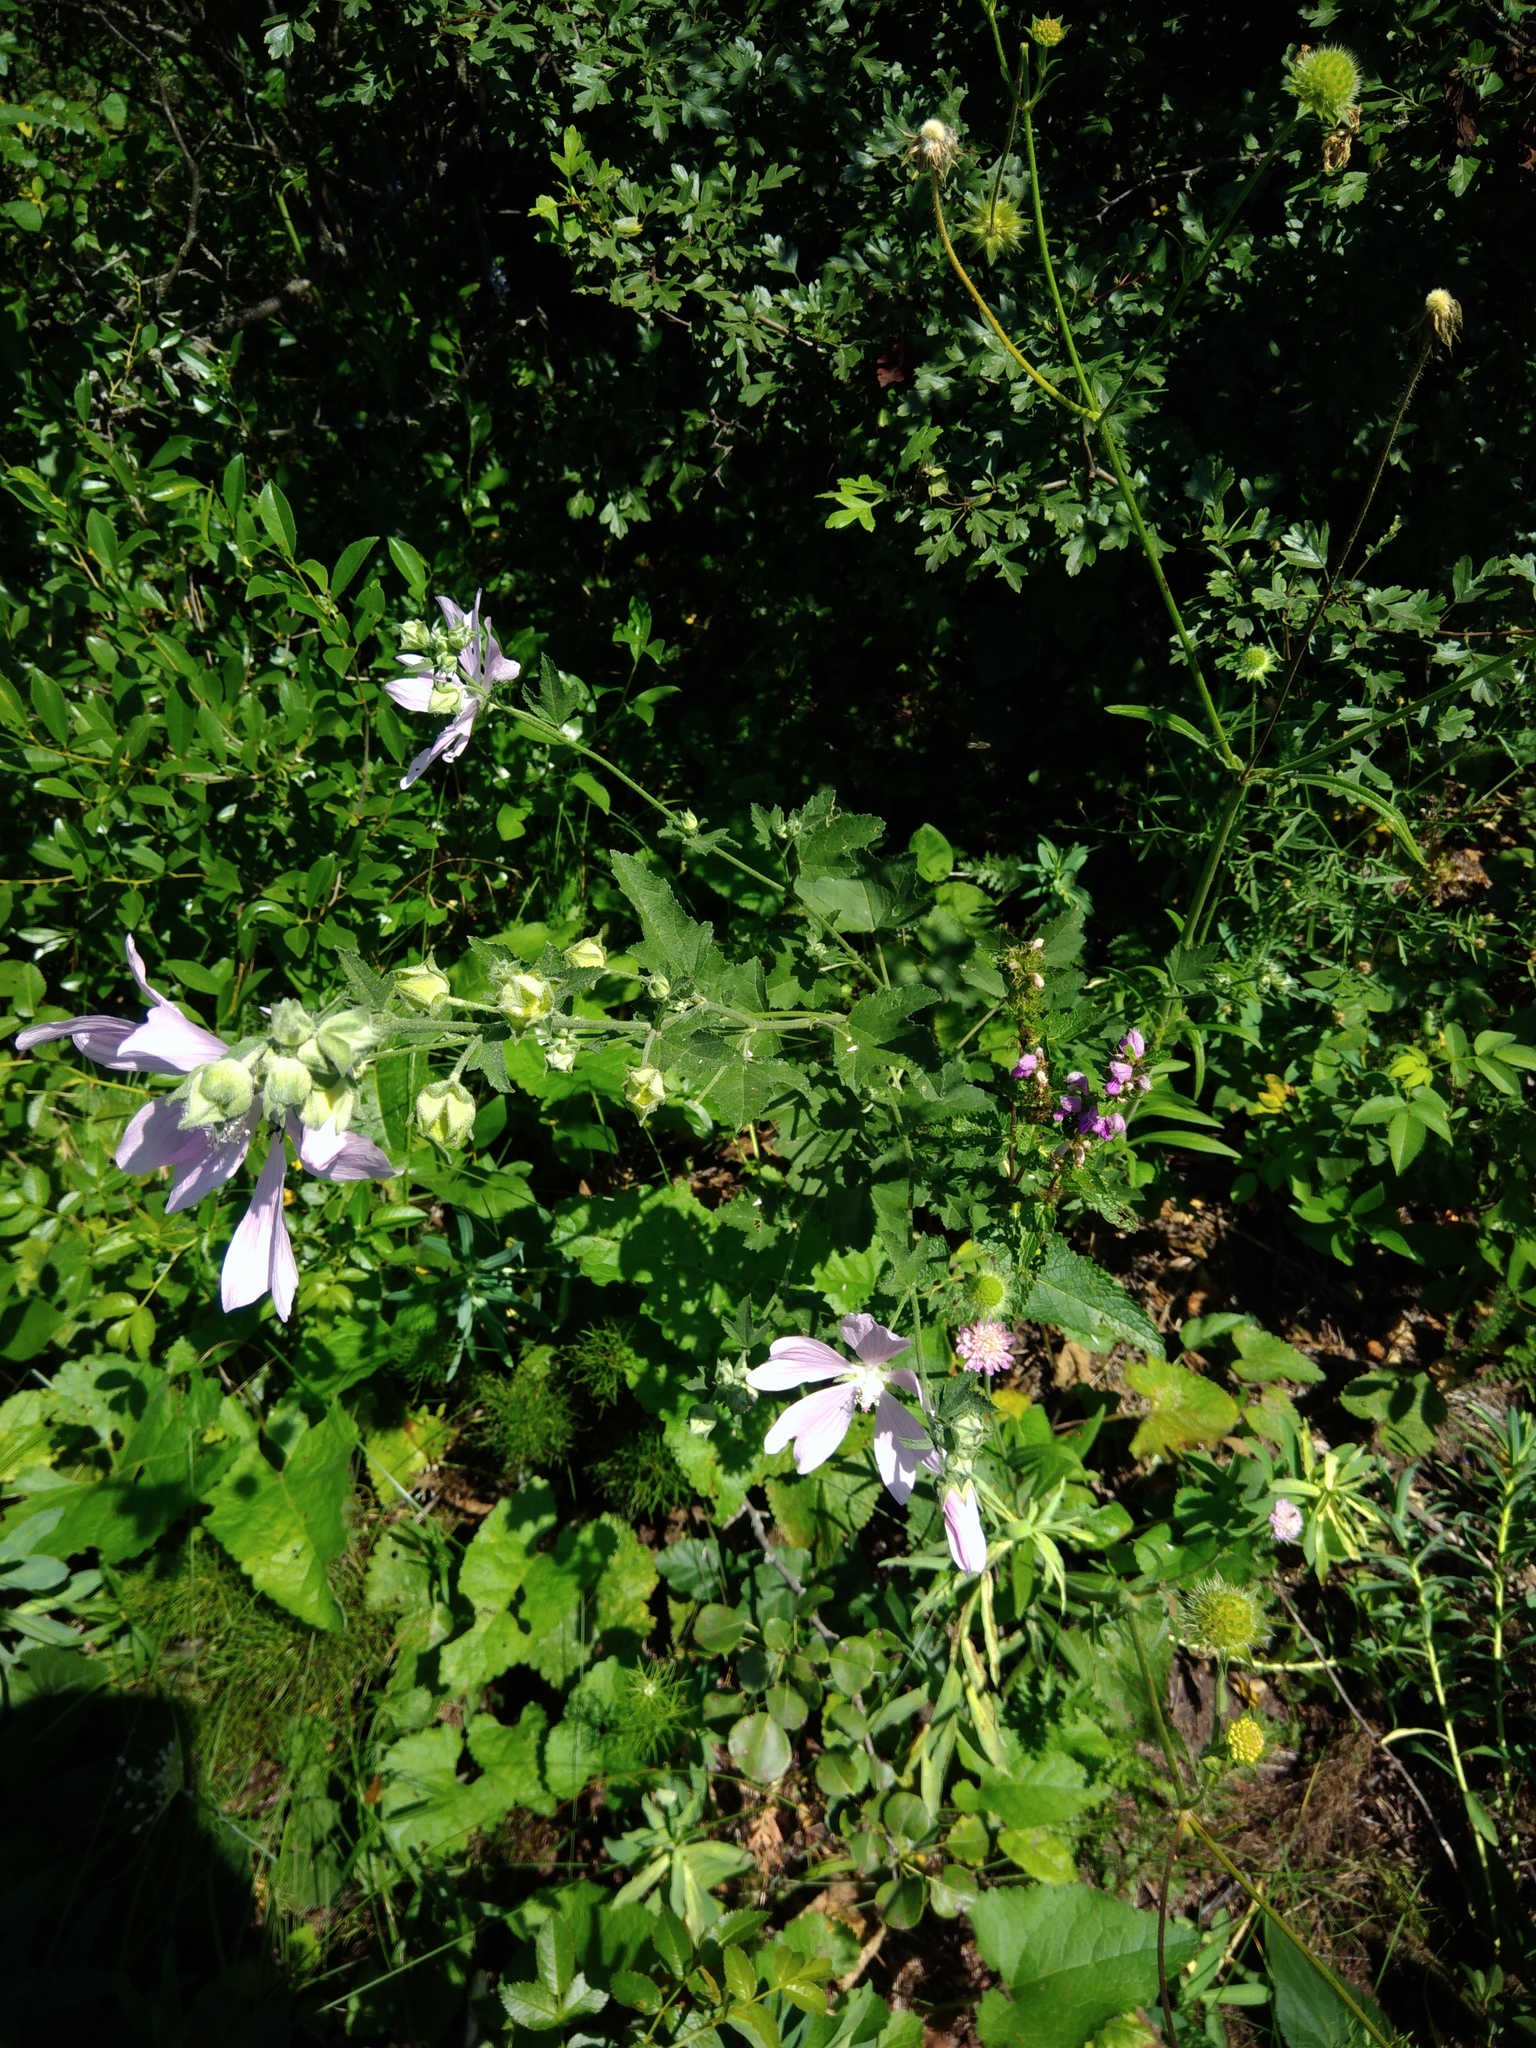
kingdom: Plantae
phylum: Tracheophyta
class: Magnoliopsida
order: Malvales
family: Malvaceae
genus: Malva
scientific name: Malva thuringiaca
